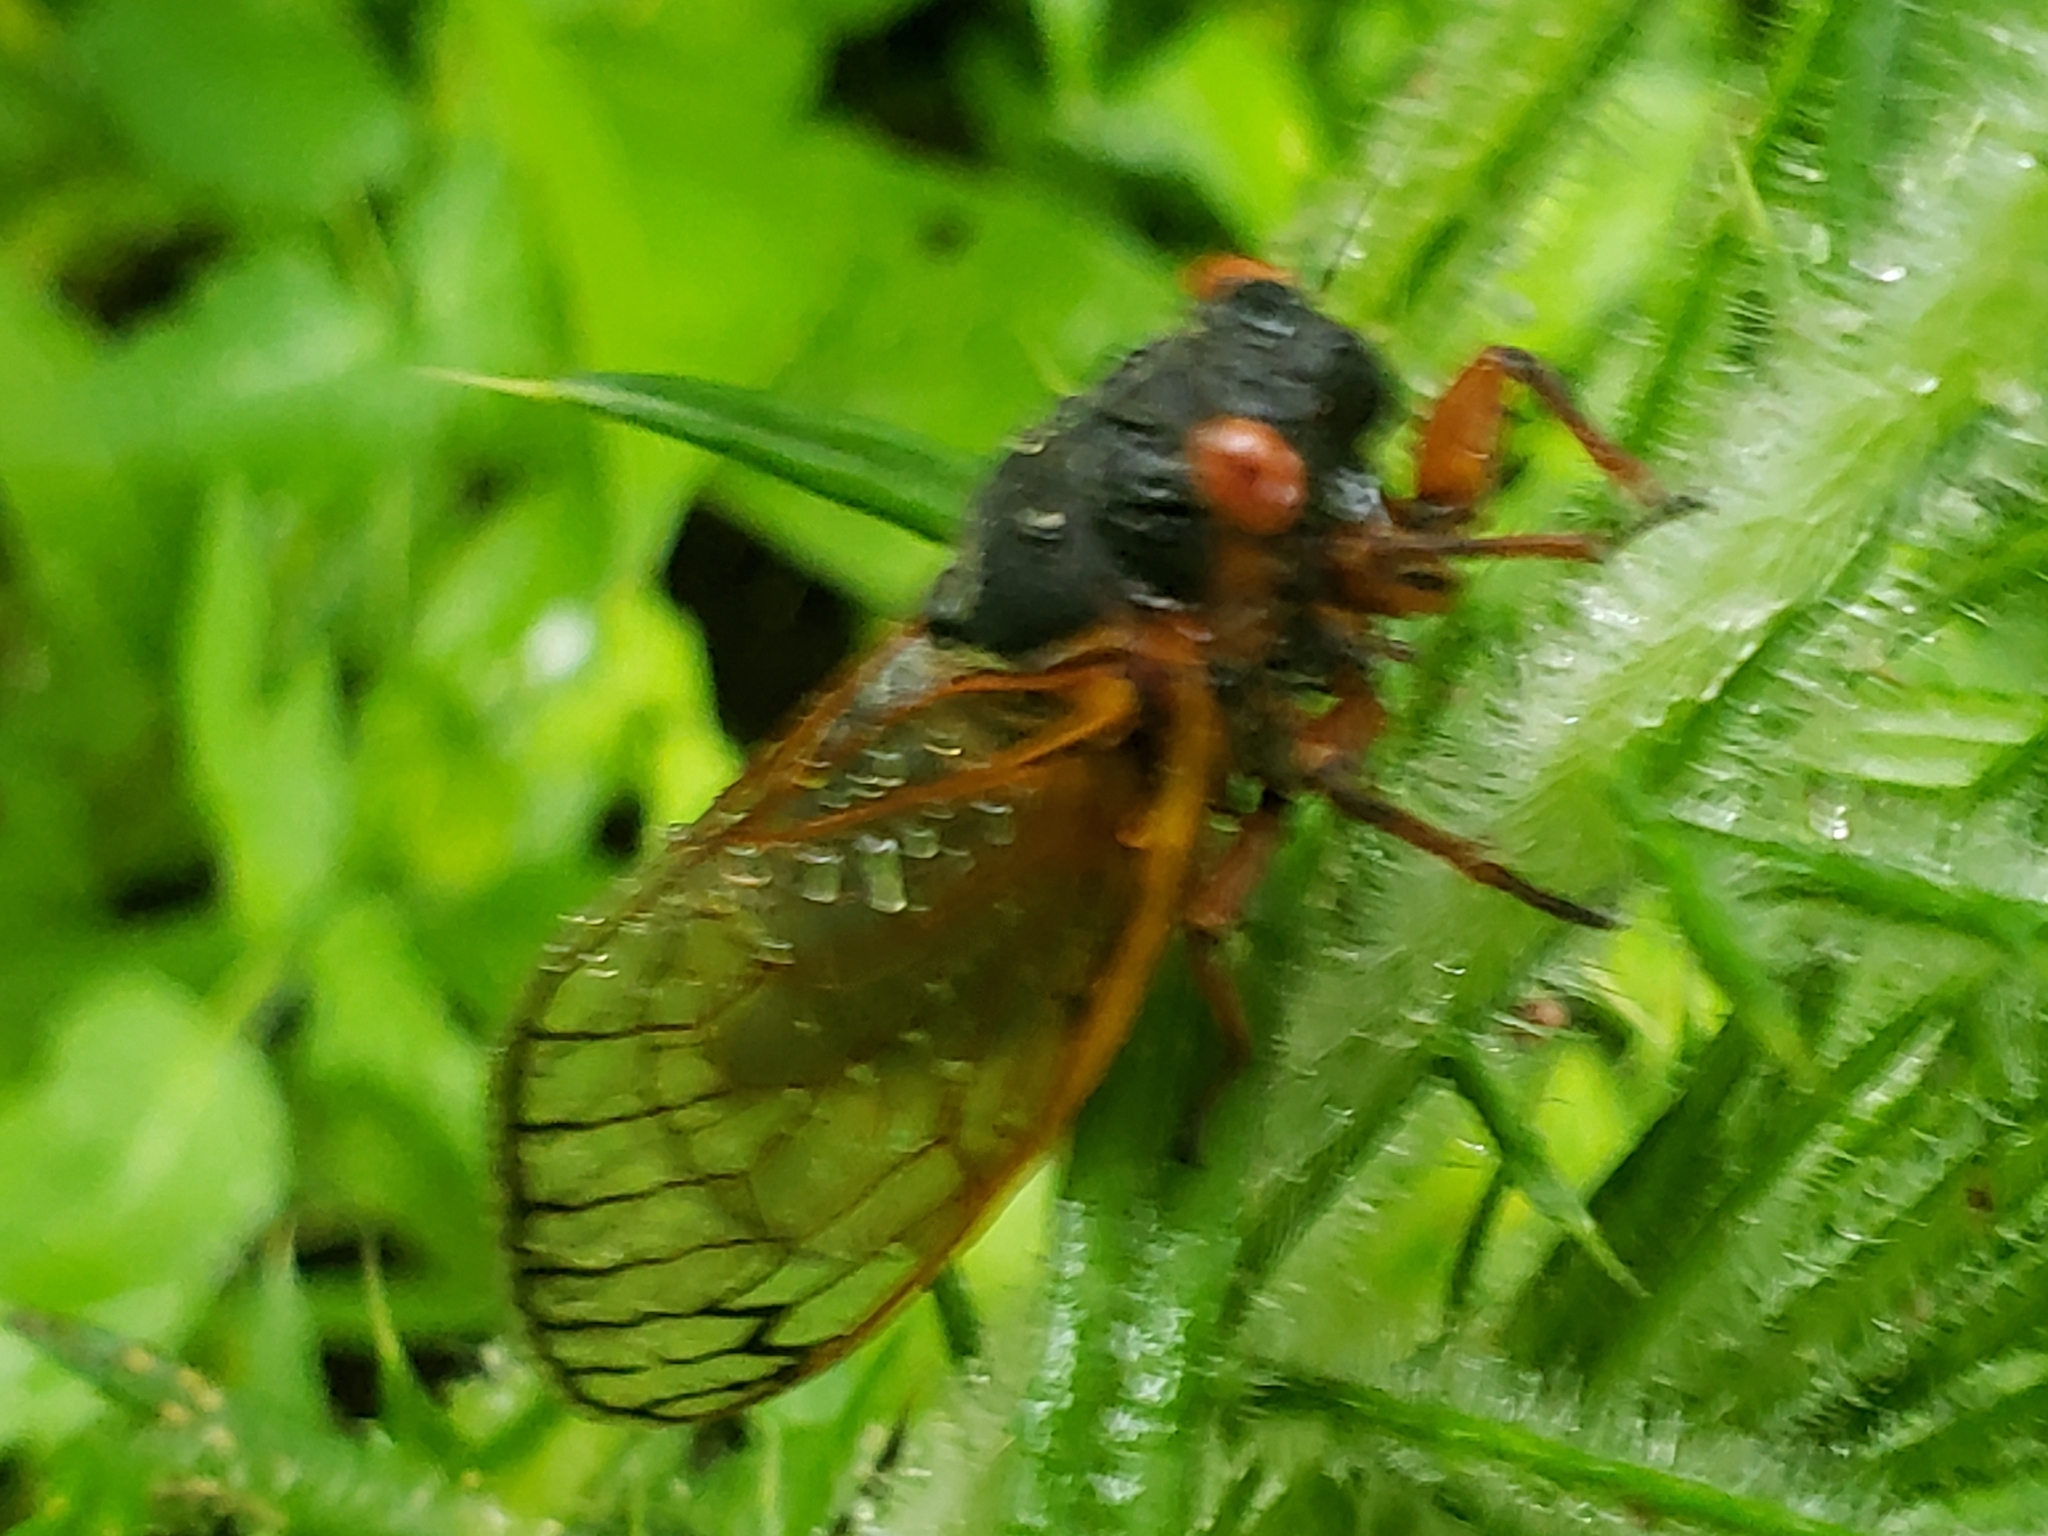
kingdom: Animalia
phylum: Arthropoda
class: Insecta
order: Hemiptera
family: Cicadidae
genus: Magicicada
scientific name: Magicicada septendecim
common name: Periodical cicada
